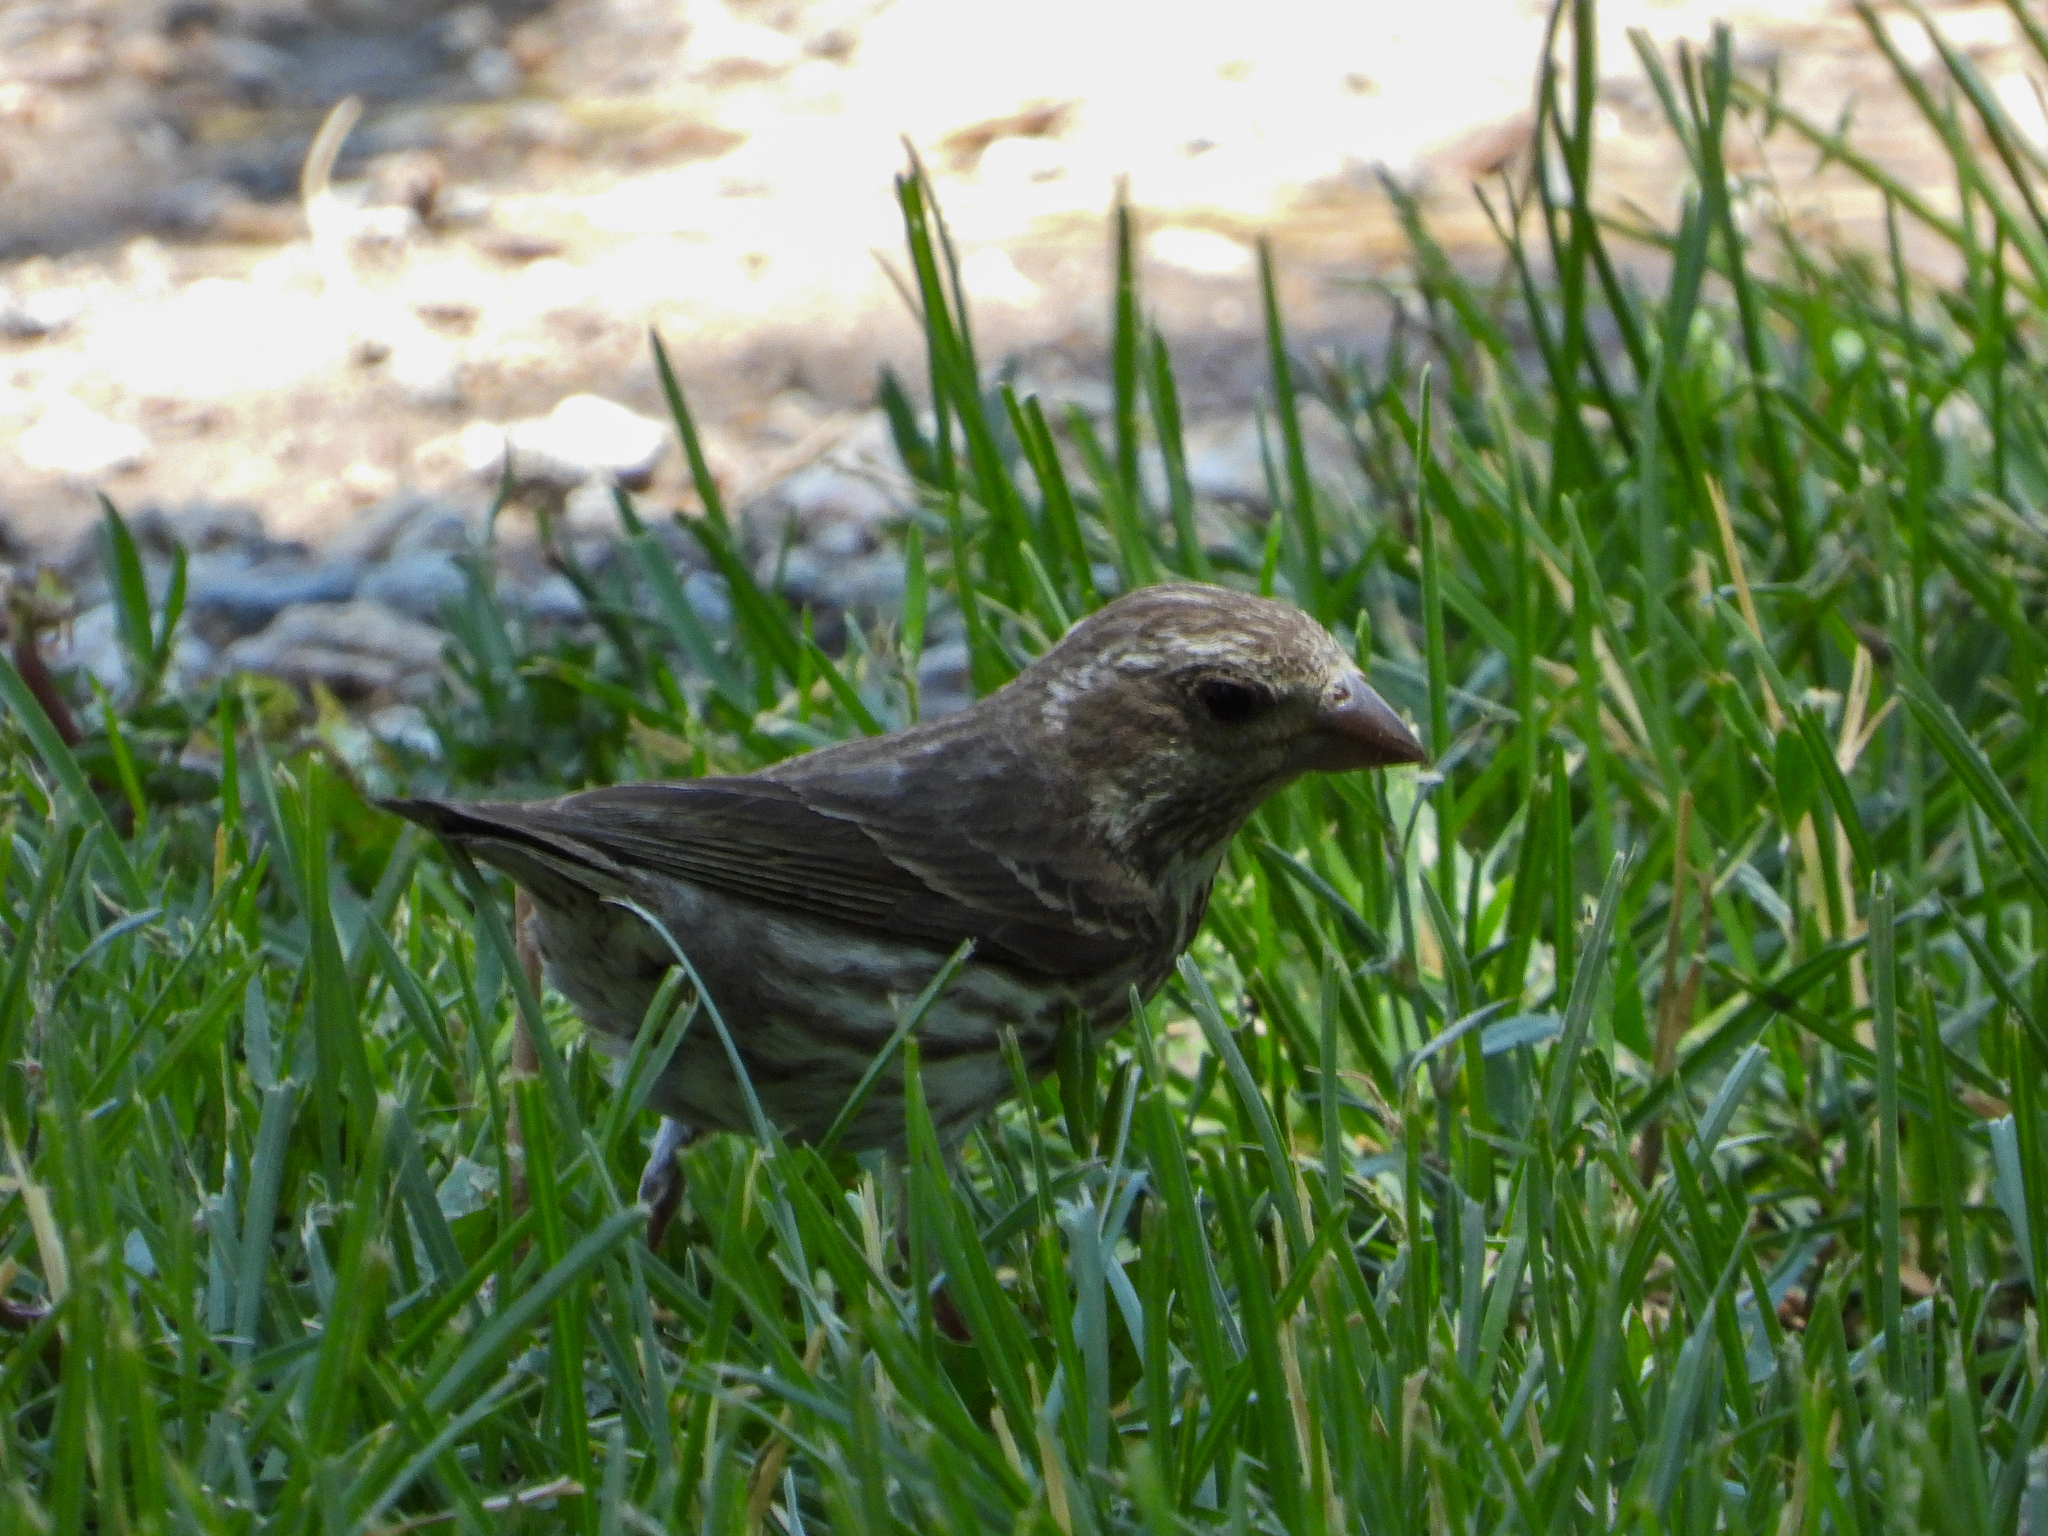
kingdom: Animalia
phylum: Chordata
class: Aves
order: Passeriformes
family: Fringillidae
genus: Haemorhous
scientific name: Haemorhous purpureus
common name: Purple finch
